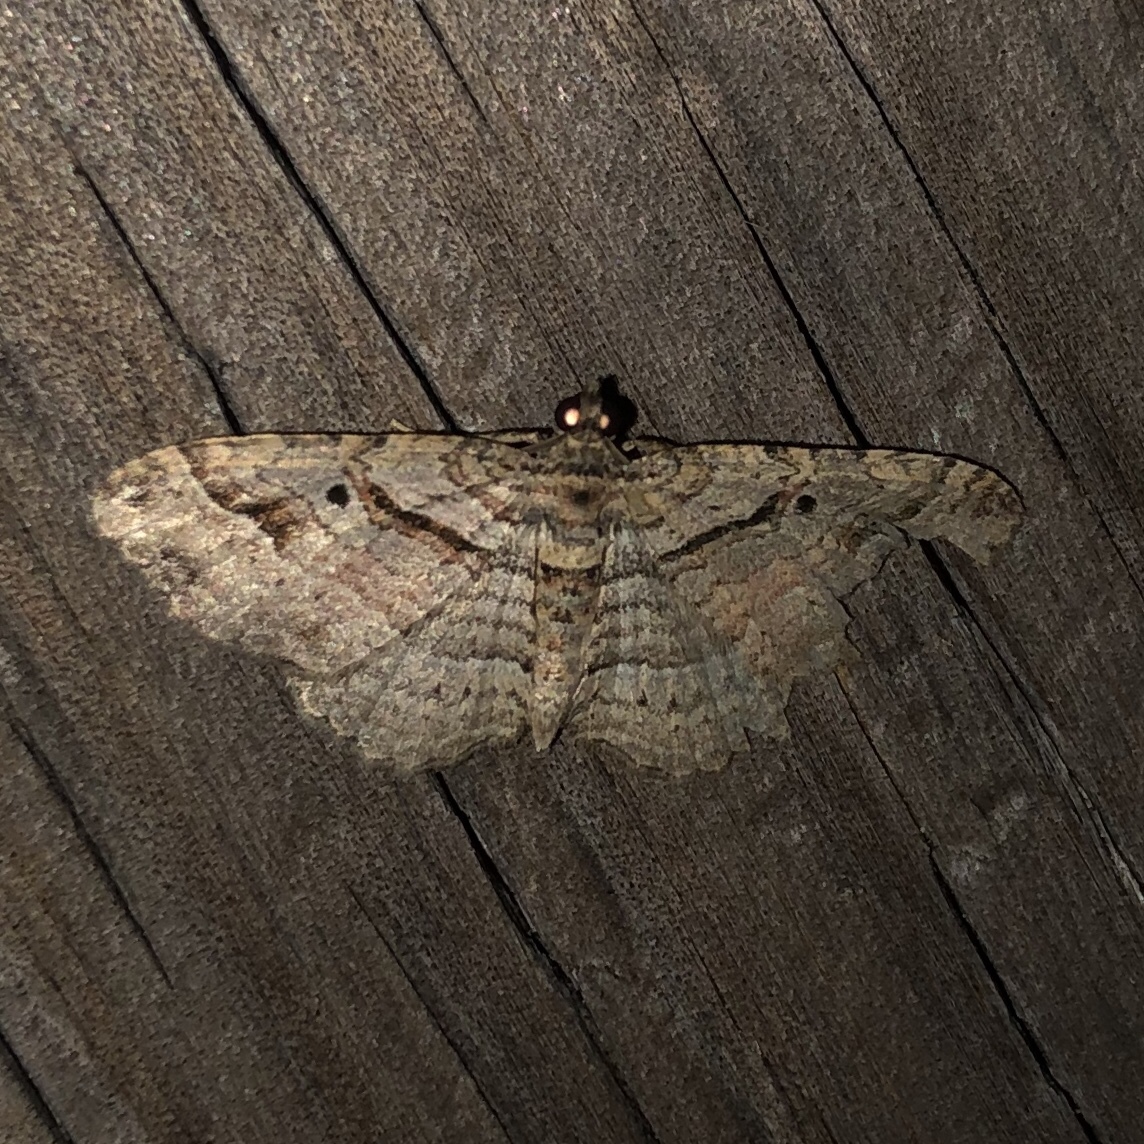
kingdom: Animalia
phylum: Arthropoda
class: Insecta
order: Lepidoptera
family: Geometridae
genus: Costaconvexa
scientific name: Costaconvexa centrostrigaria
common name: Bent-line carpet
